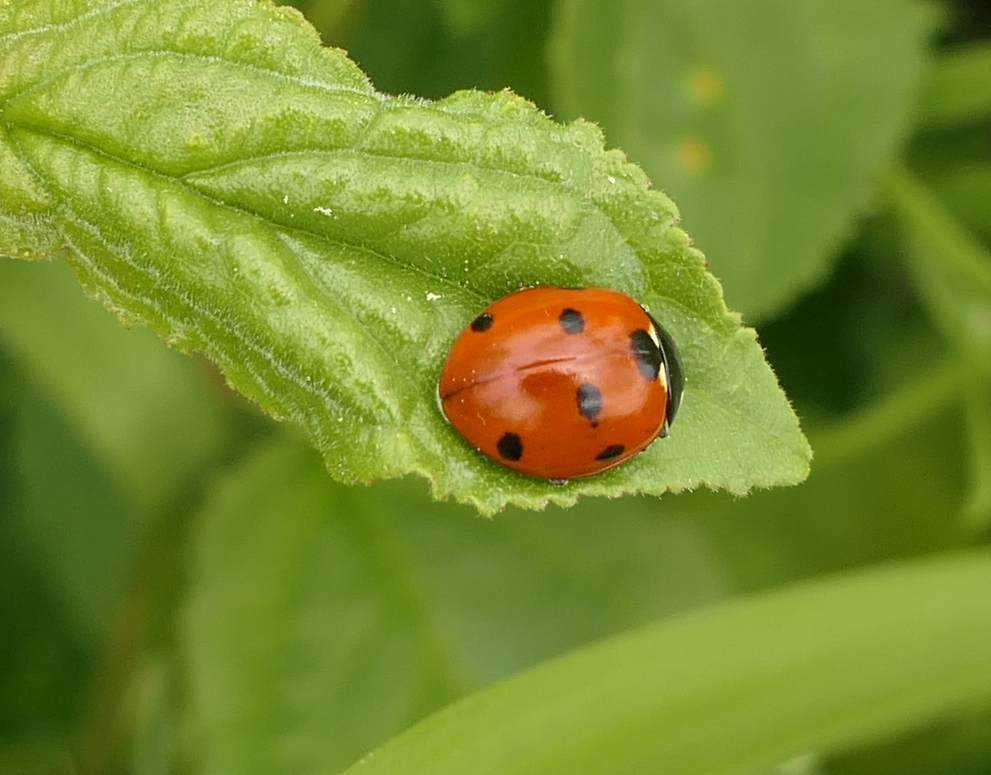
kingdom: Animalia
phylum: Arthropoda
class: Insecta
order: Coleoptera
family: Coccinellidae
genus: Coccinella
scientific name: Coccinella septempunctata
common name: Sevenspotted lady beetle
